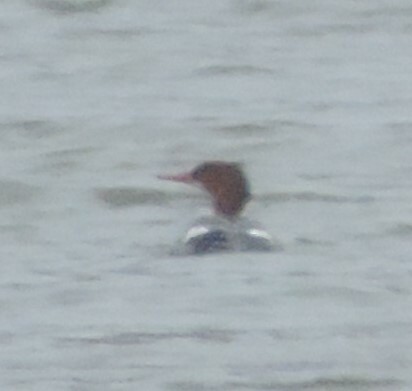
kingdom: Animalia
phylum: Chordata
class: Aves
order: Anseriformes
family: Anatidae
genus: Mergus
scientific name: Mergus merganser
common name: Common merganser
